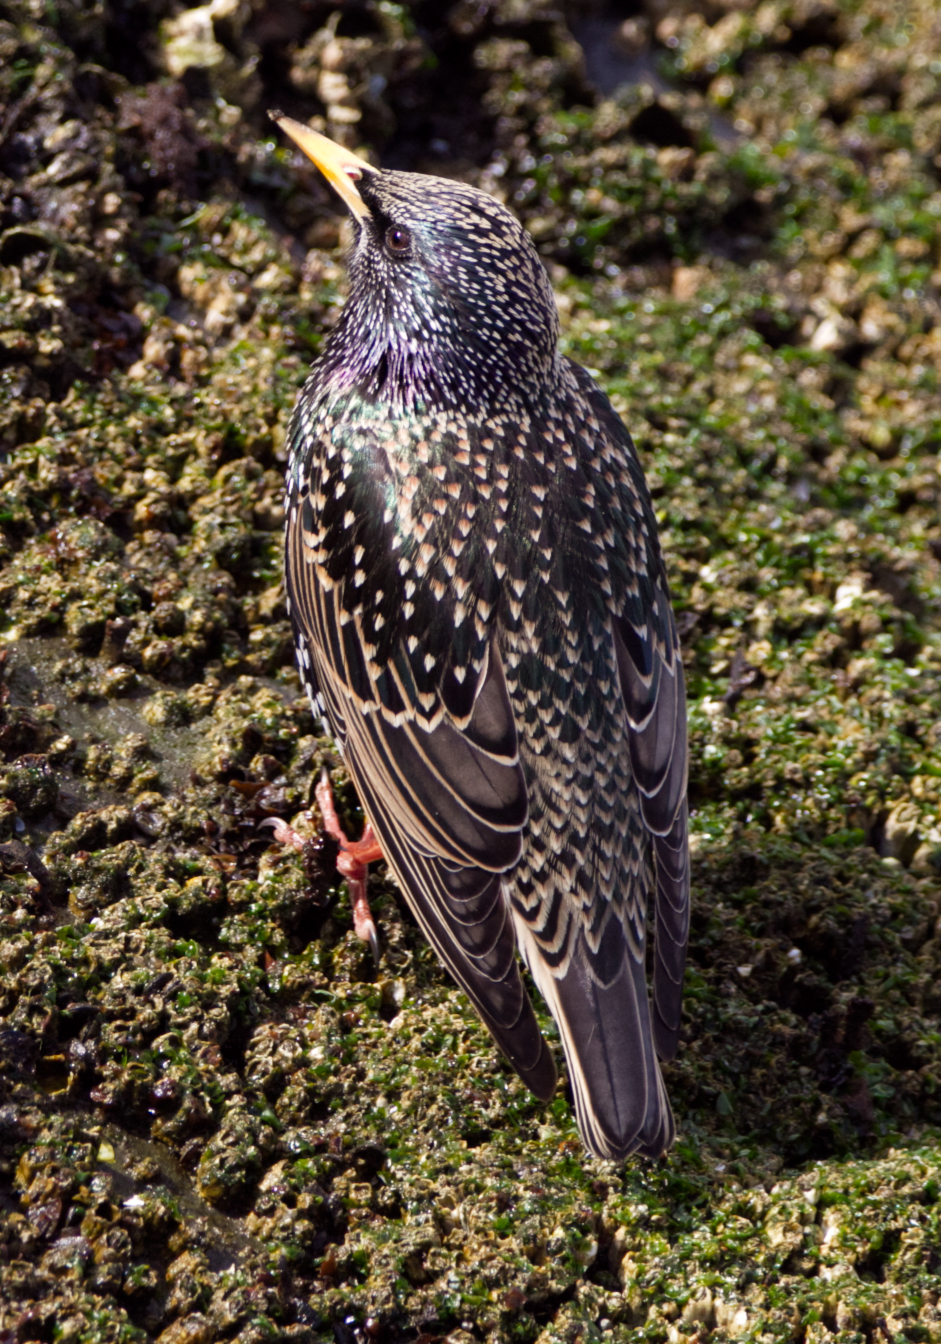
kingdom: Animalia
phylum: Chordata
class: Aves
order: Passeriformes
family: Sturnidae
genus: Sturnus
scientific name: Sturnus vulgaris
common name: Common starling
